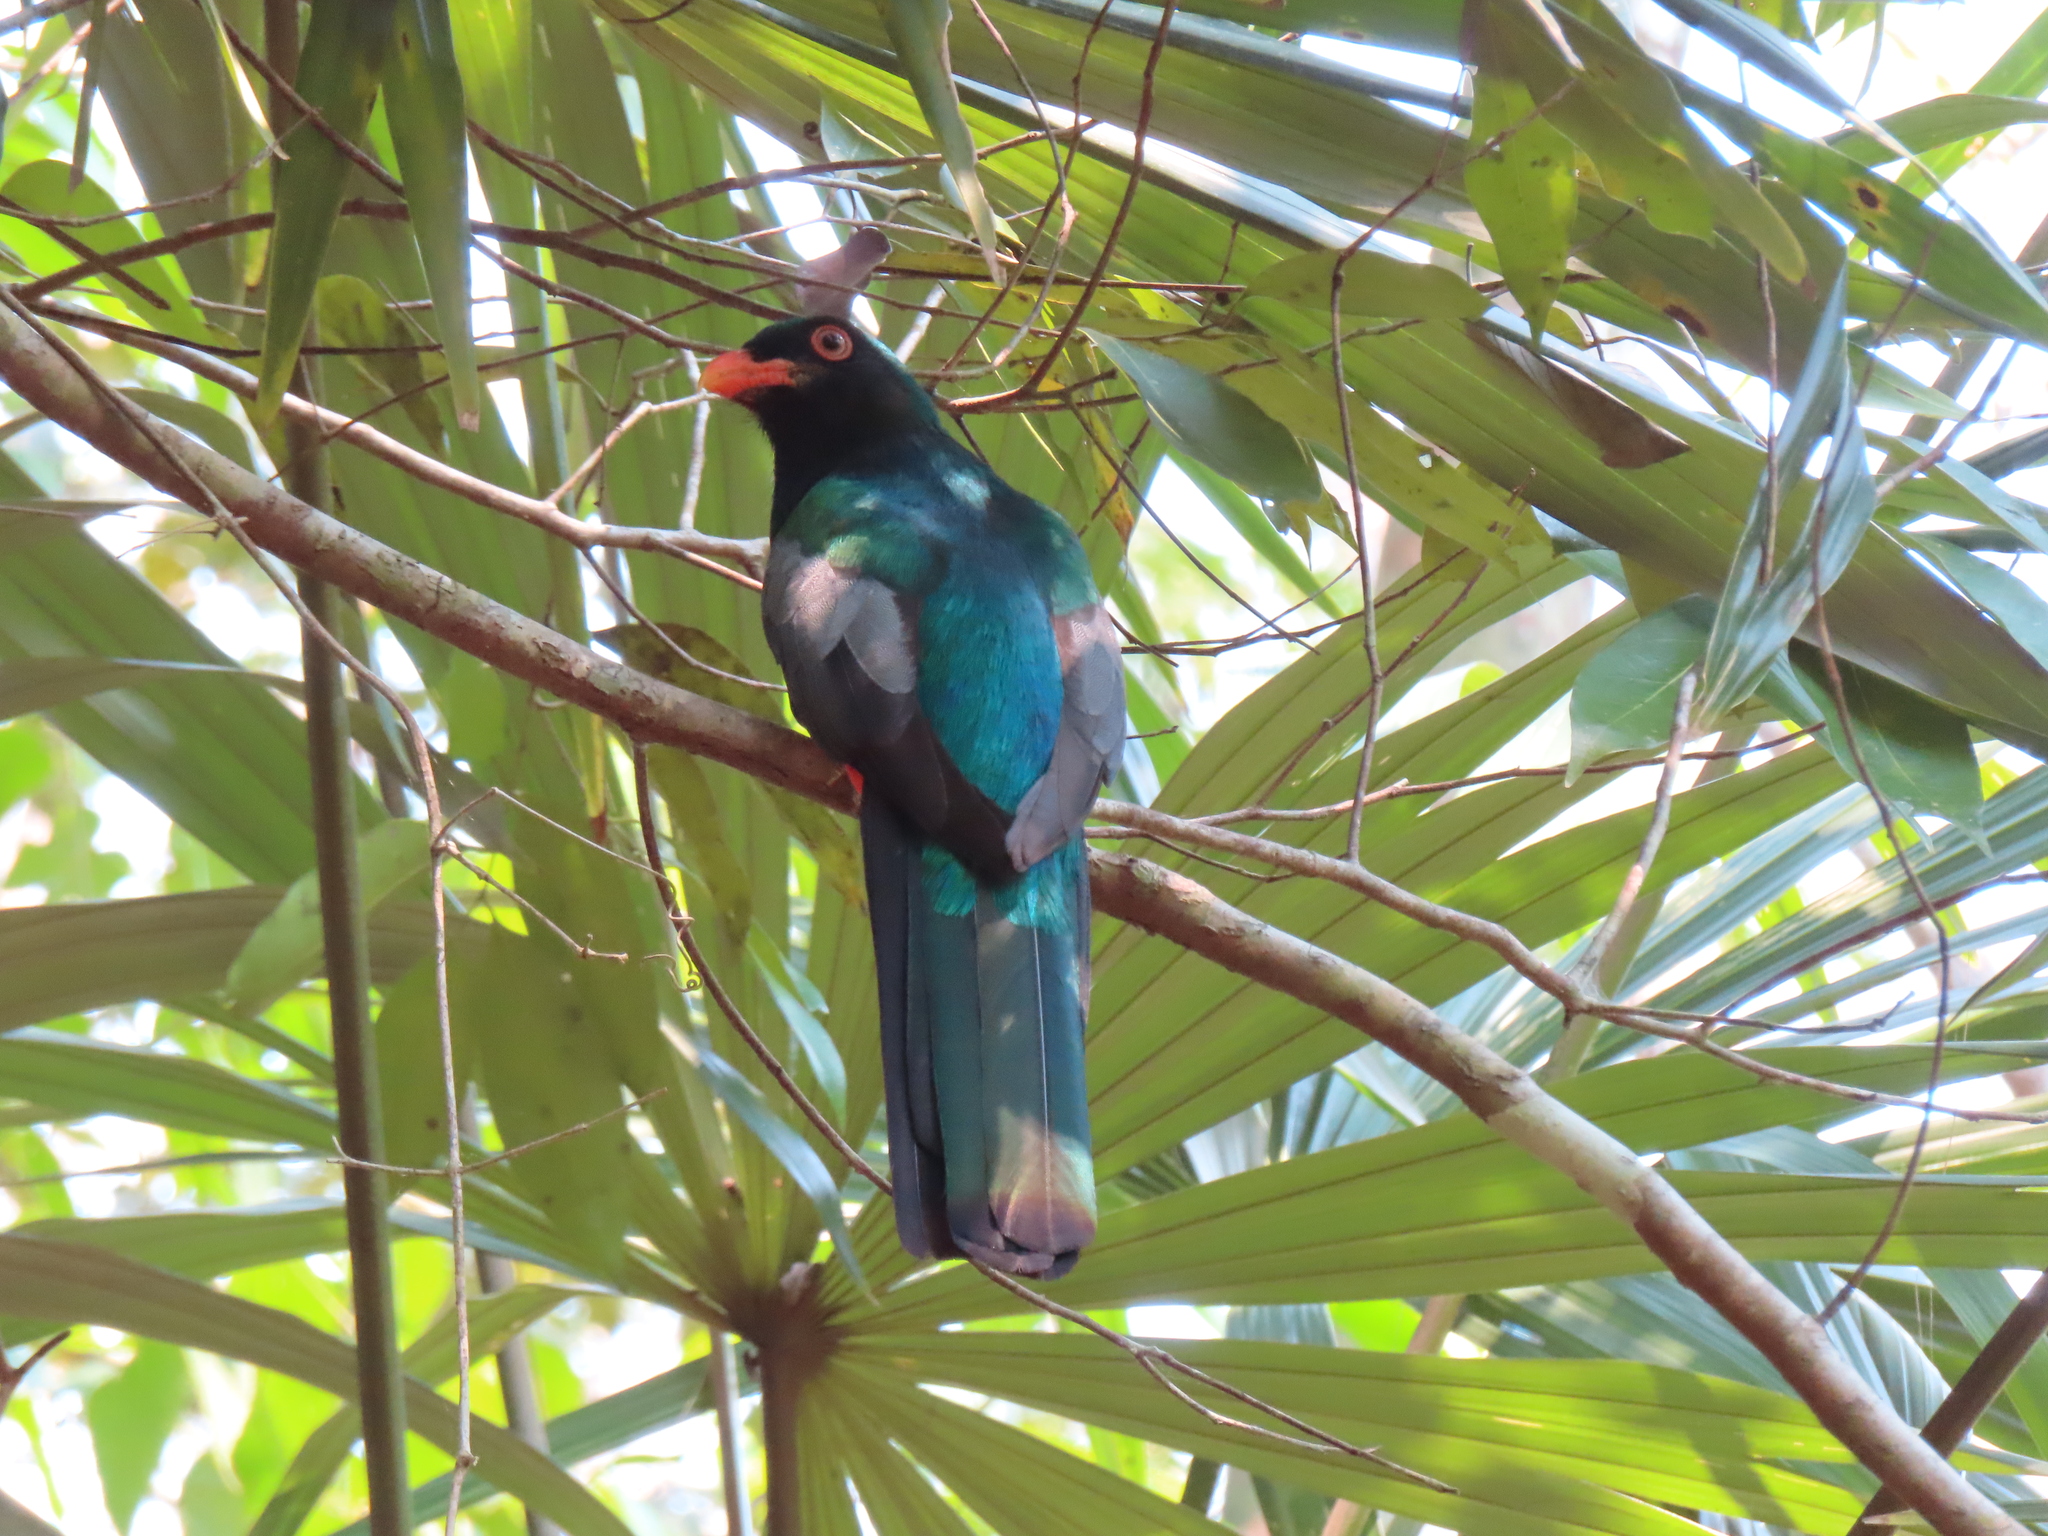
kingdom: Animalia
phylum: Chordata
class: Aves
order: Trogoniformes
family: Trogonidae
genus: Trogon
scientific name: Trogon massena
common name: Slaty-tailed trogon
